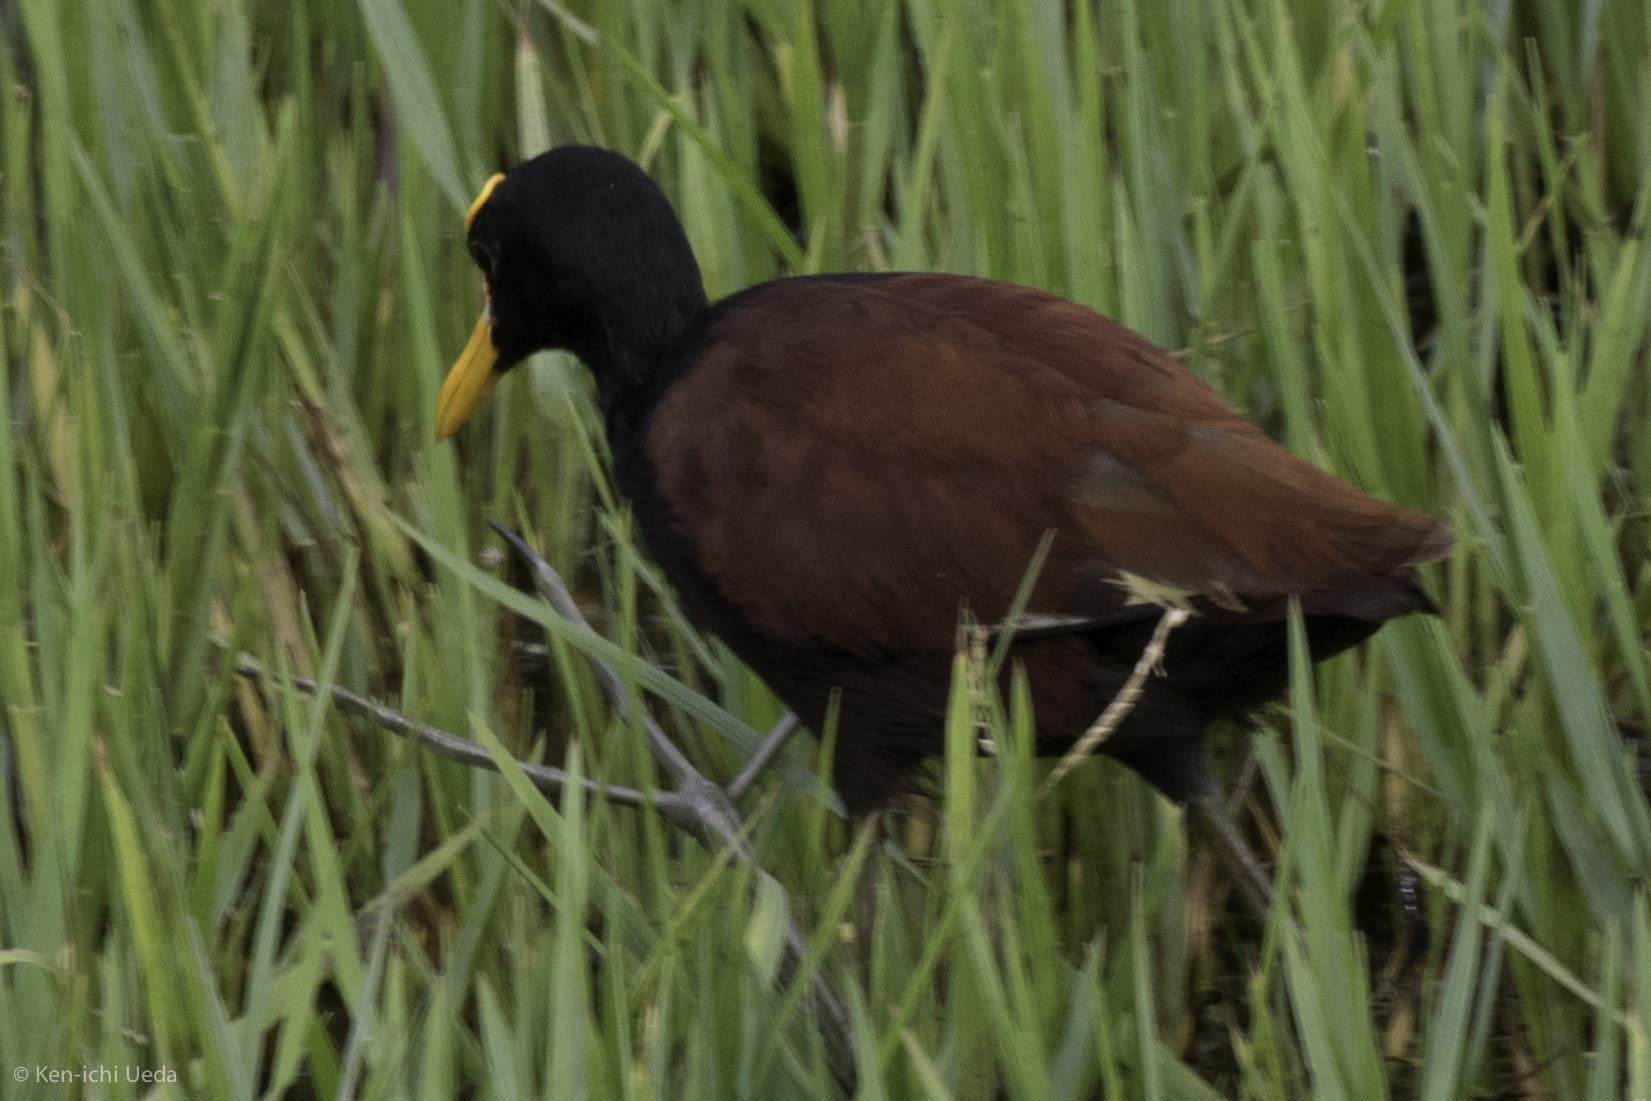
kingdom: Animalia
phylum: Chordata
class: Aves
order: Charadriiformes
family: Jacanidae
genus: Jacana
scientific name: Jacana spinosa
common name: Northern jacana
